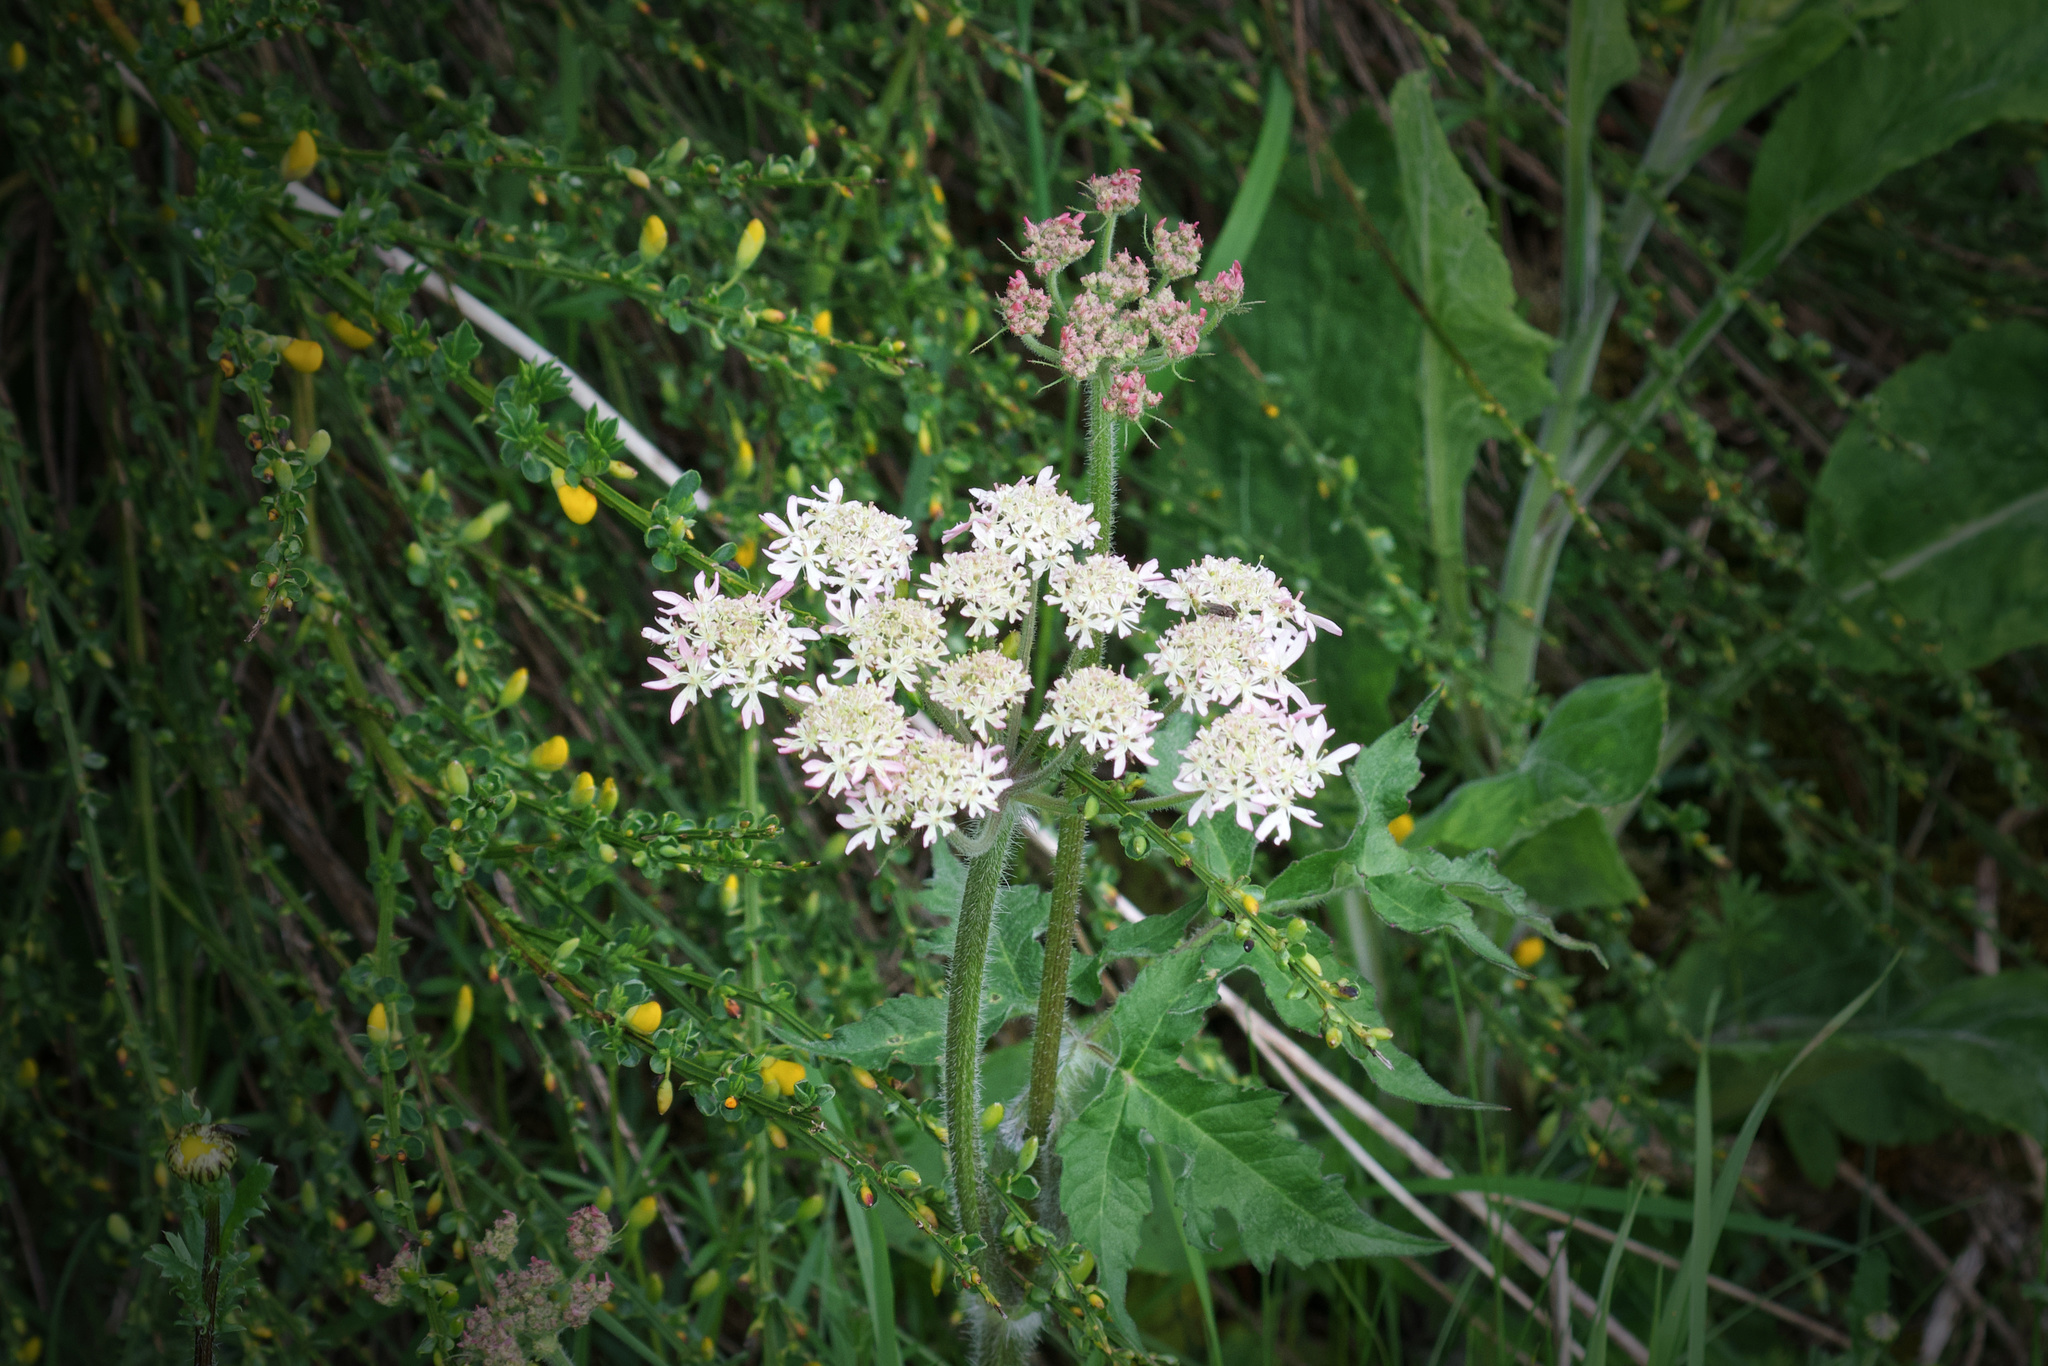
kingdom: Plantae
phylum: Tracheophyta
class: Magnoliopsida
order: Apiales
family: Apiaceae
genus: Heracleum
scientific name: Heracleum sphondylium
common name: Hogweed
